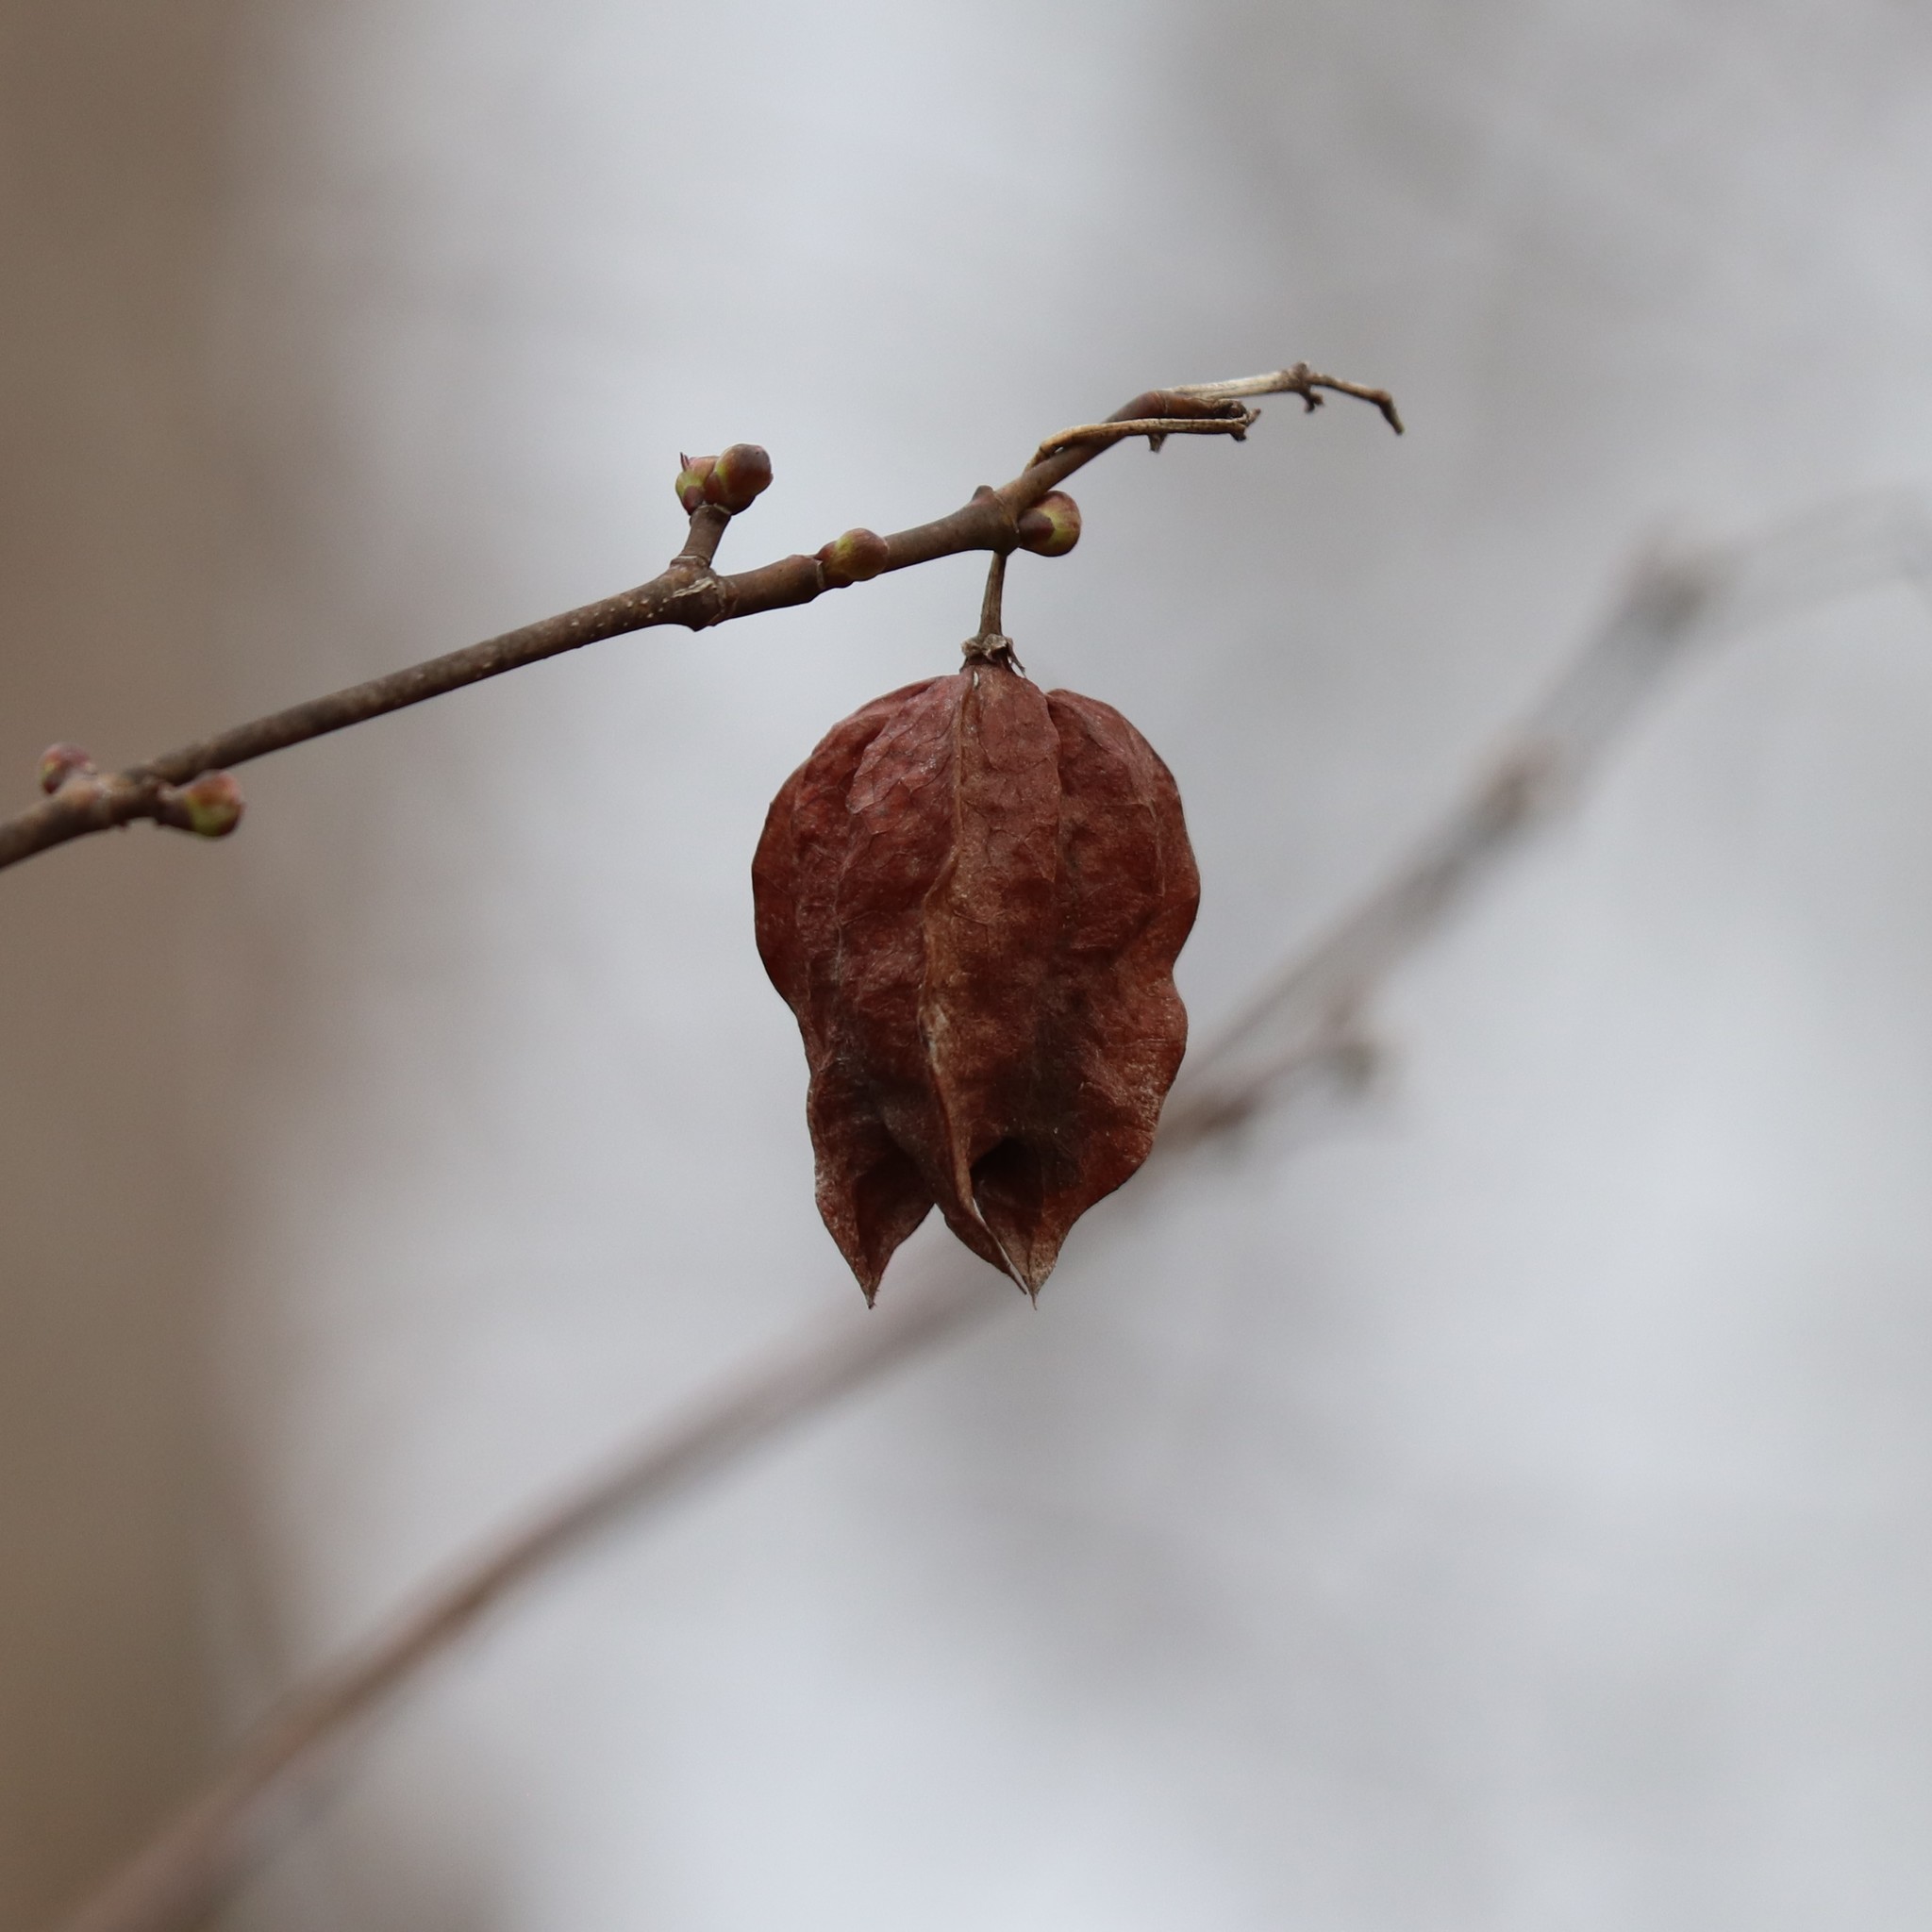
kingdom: Plantae
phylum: Tracheophyta
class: Magnoliopsida
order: Crossosomatales
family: Staphyleaceae
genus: Staphylea
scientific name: Staphylea trifolia
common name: American bladdernut
